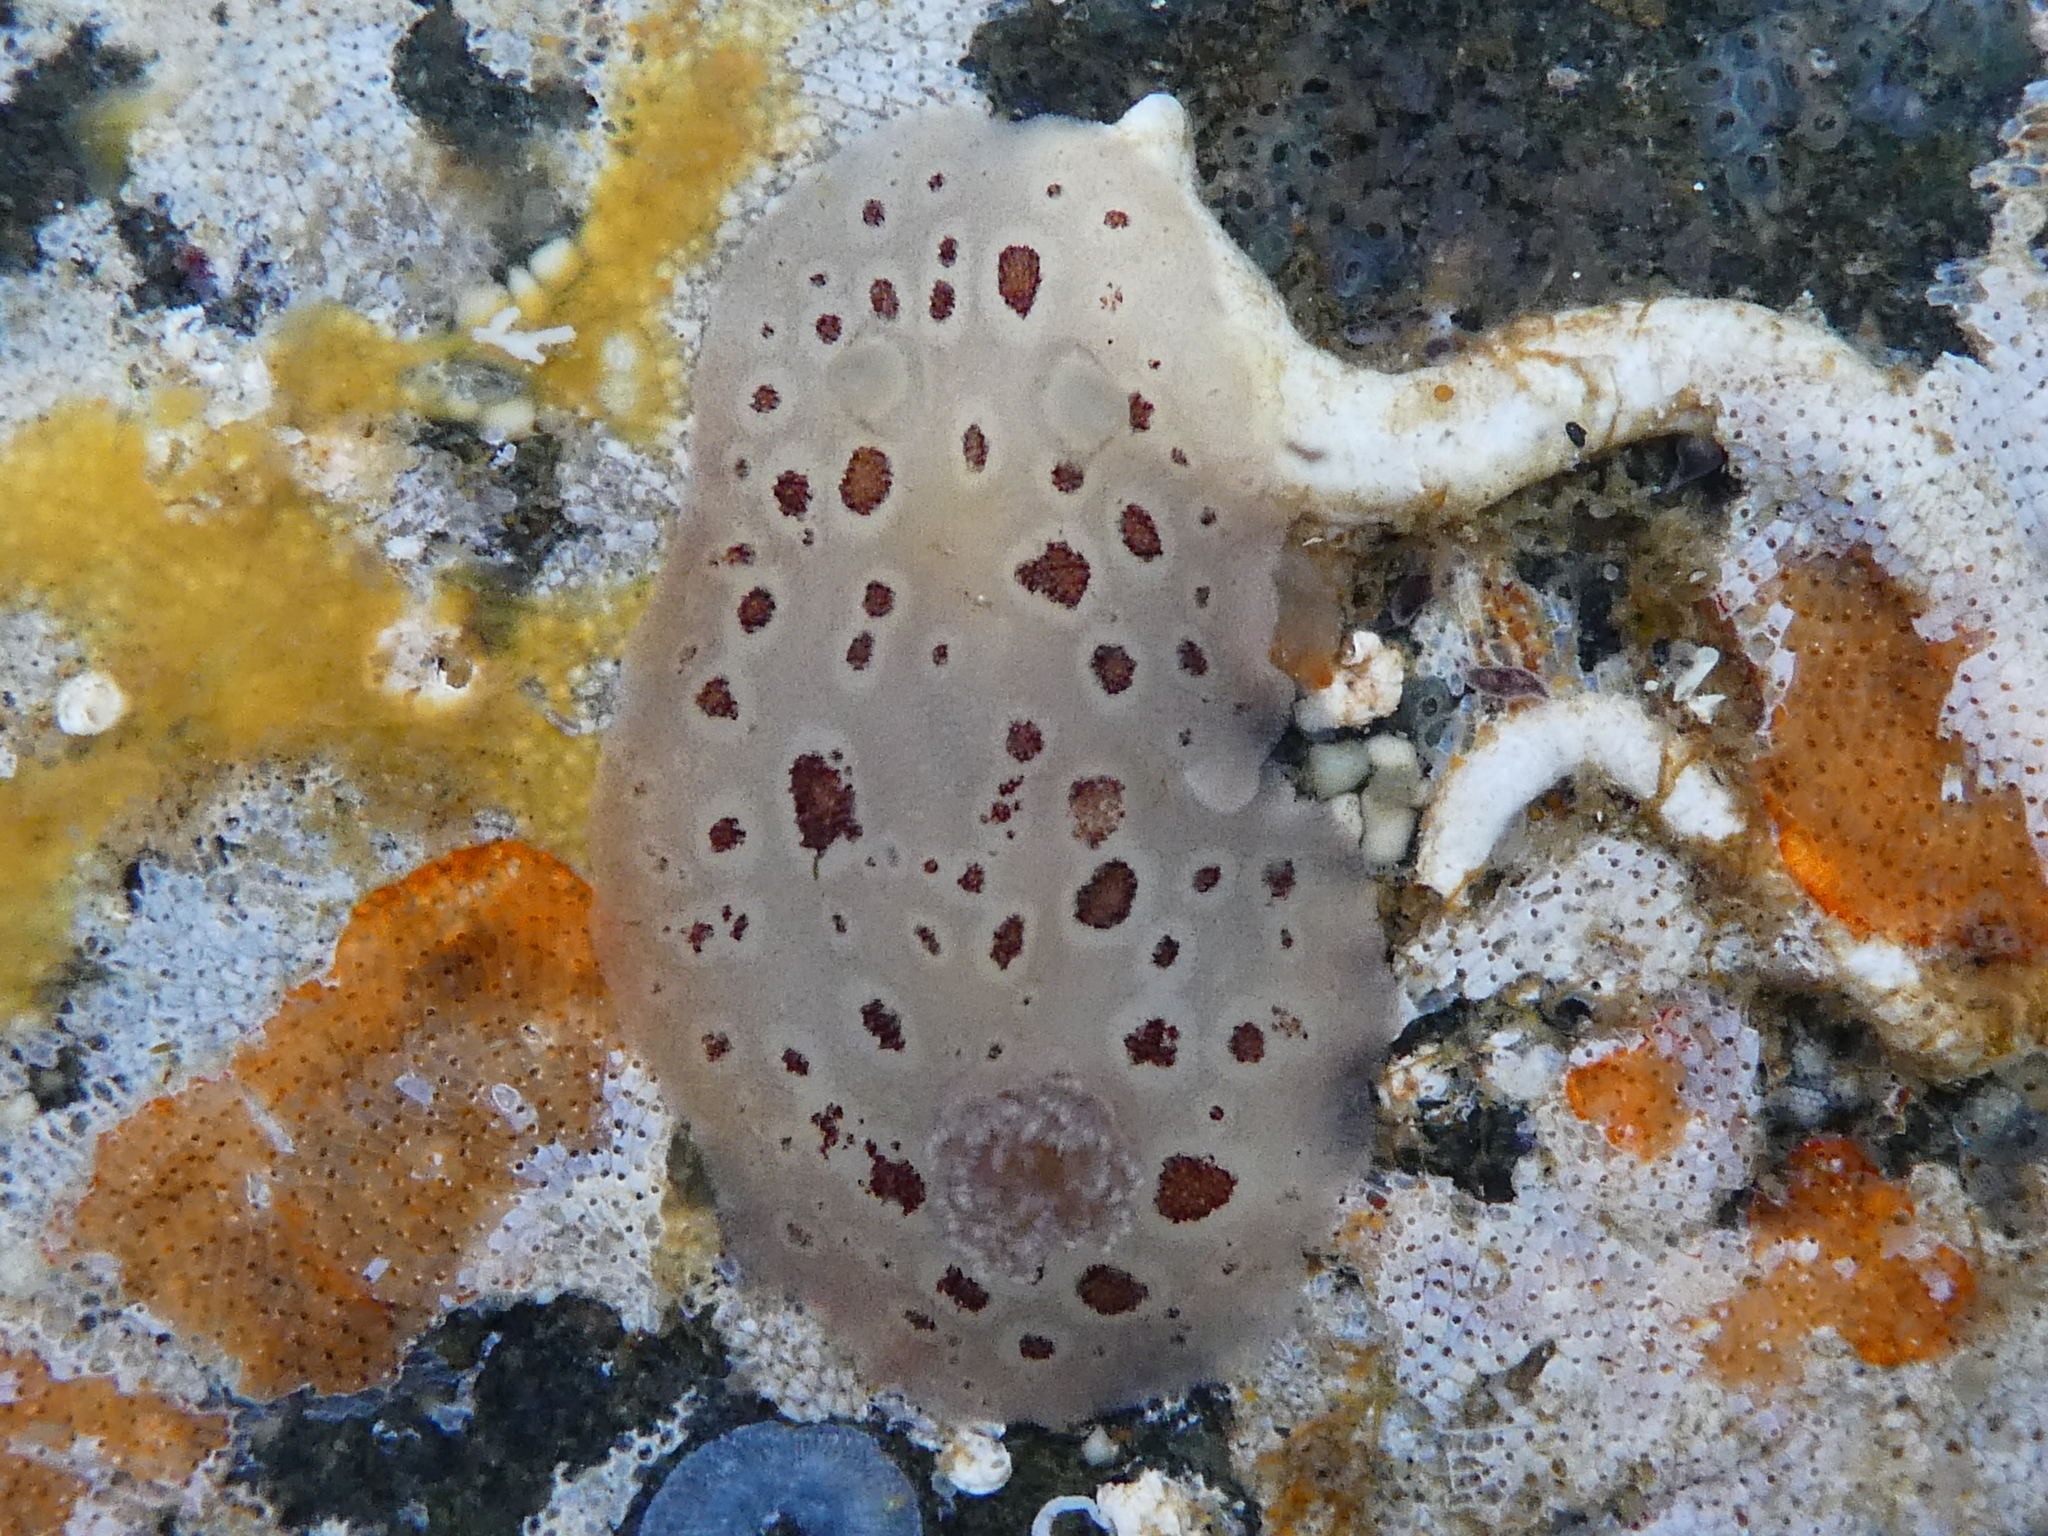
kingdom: Animalia
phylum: Mollusca
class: Gastropoda
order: Nudibranchia
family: Discodorididae
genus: Diaulula
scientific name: Diaulula odonoghuei
